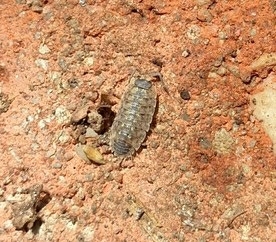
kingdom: Animalia
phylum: Arthropoda
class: Malacostraca
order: Isopoda
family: Porcellionidae
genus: Porcellio
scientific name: Porcellio spinicornis
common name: Painted woodlouse
